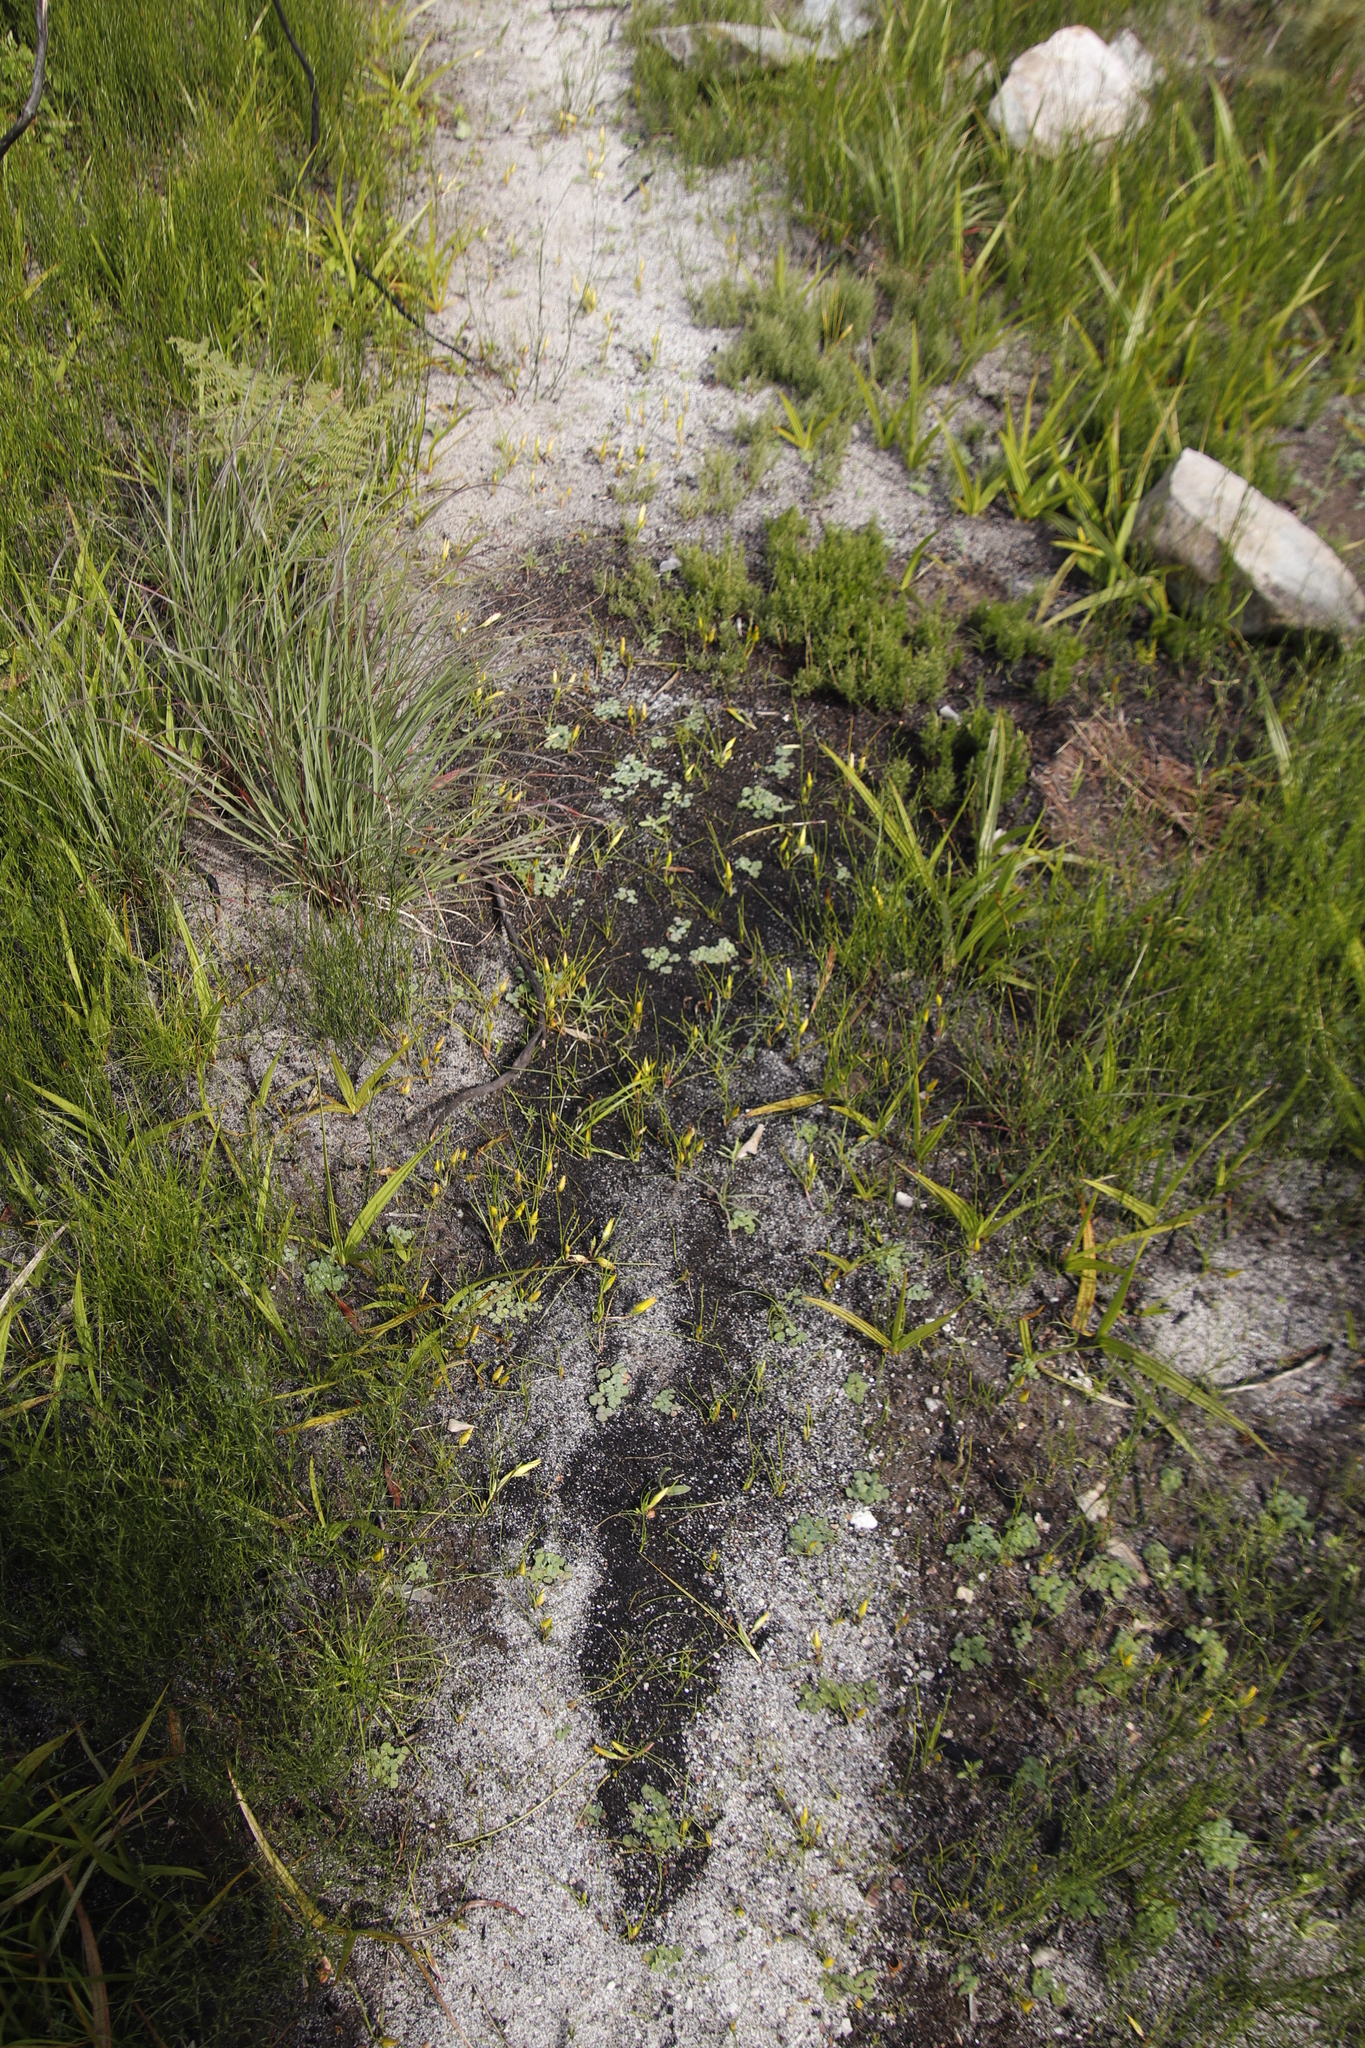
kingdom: Plantae
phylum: Tracheophyta
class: Magnoliopsida
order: Oxalidales
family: Oxalidaceae
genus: Oxalis
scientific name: Oxalis commutata
